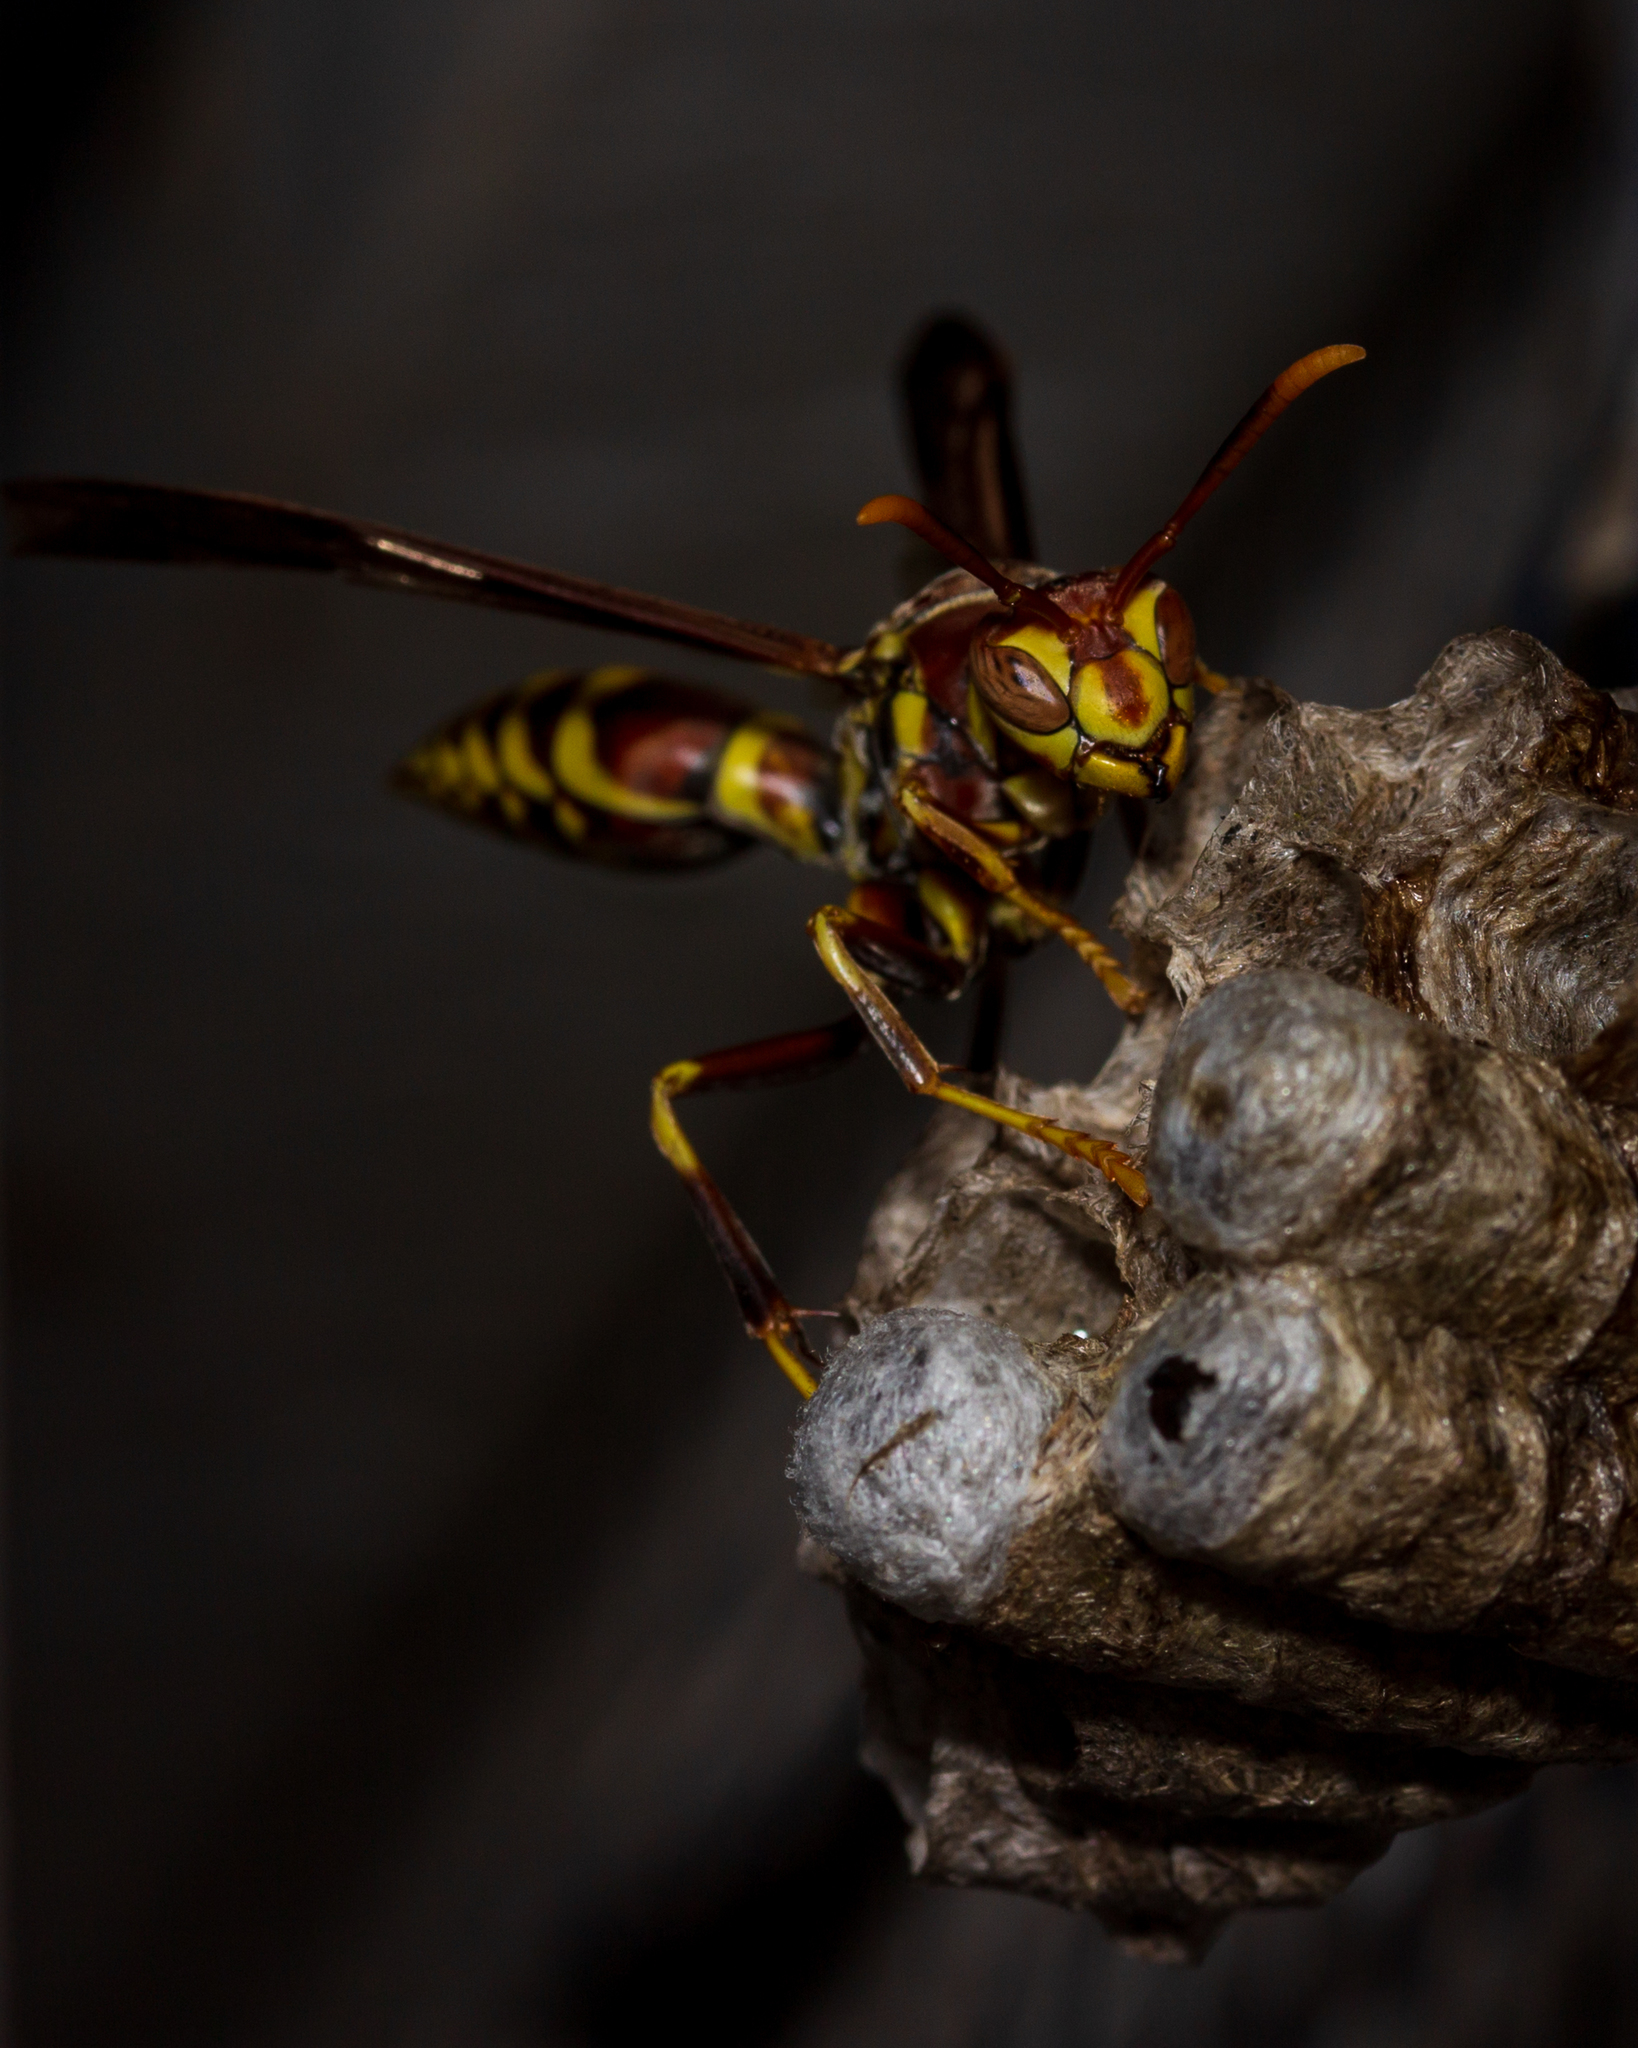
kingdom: Animalia
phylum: Arthropoda
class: Insecta
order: Hymenoptera
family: Eumenidae
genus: Polistes
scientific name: Polistes exclamans
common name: Paper wasp
